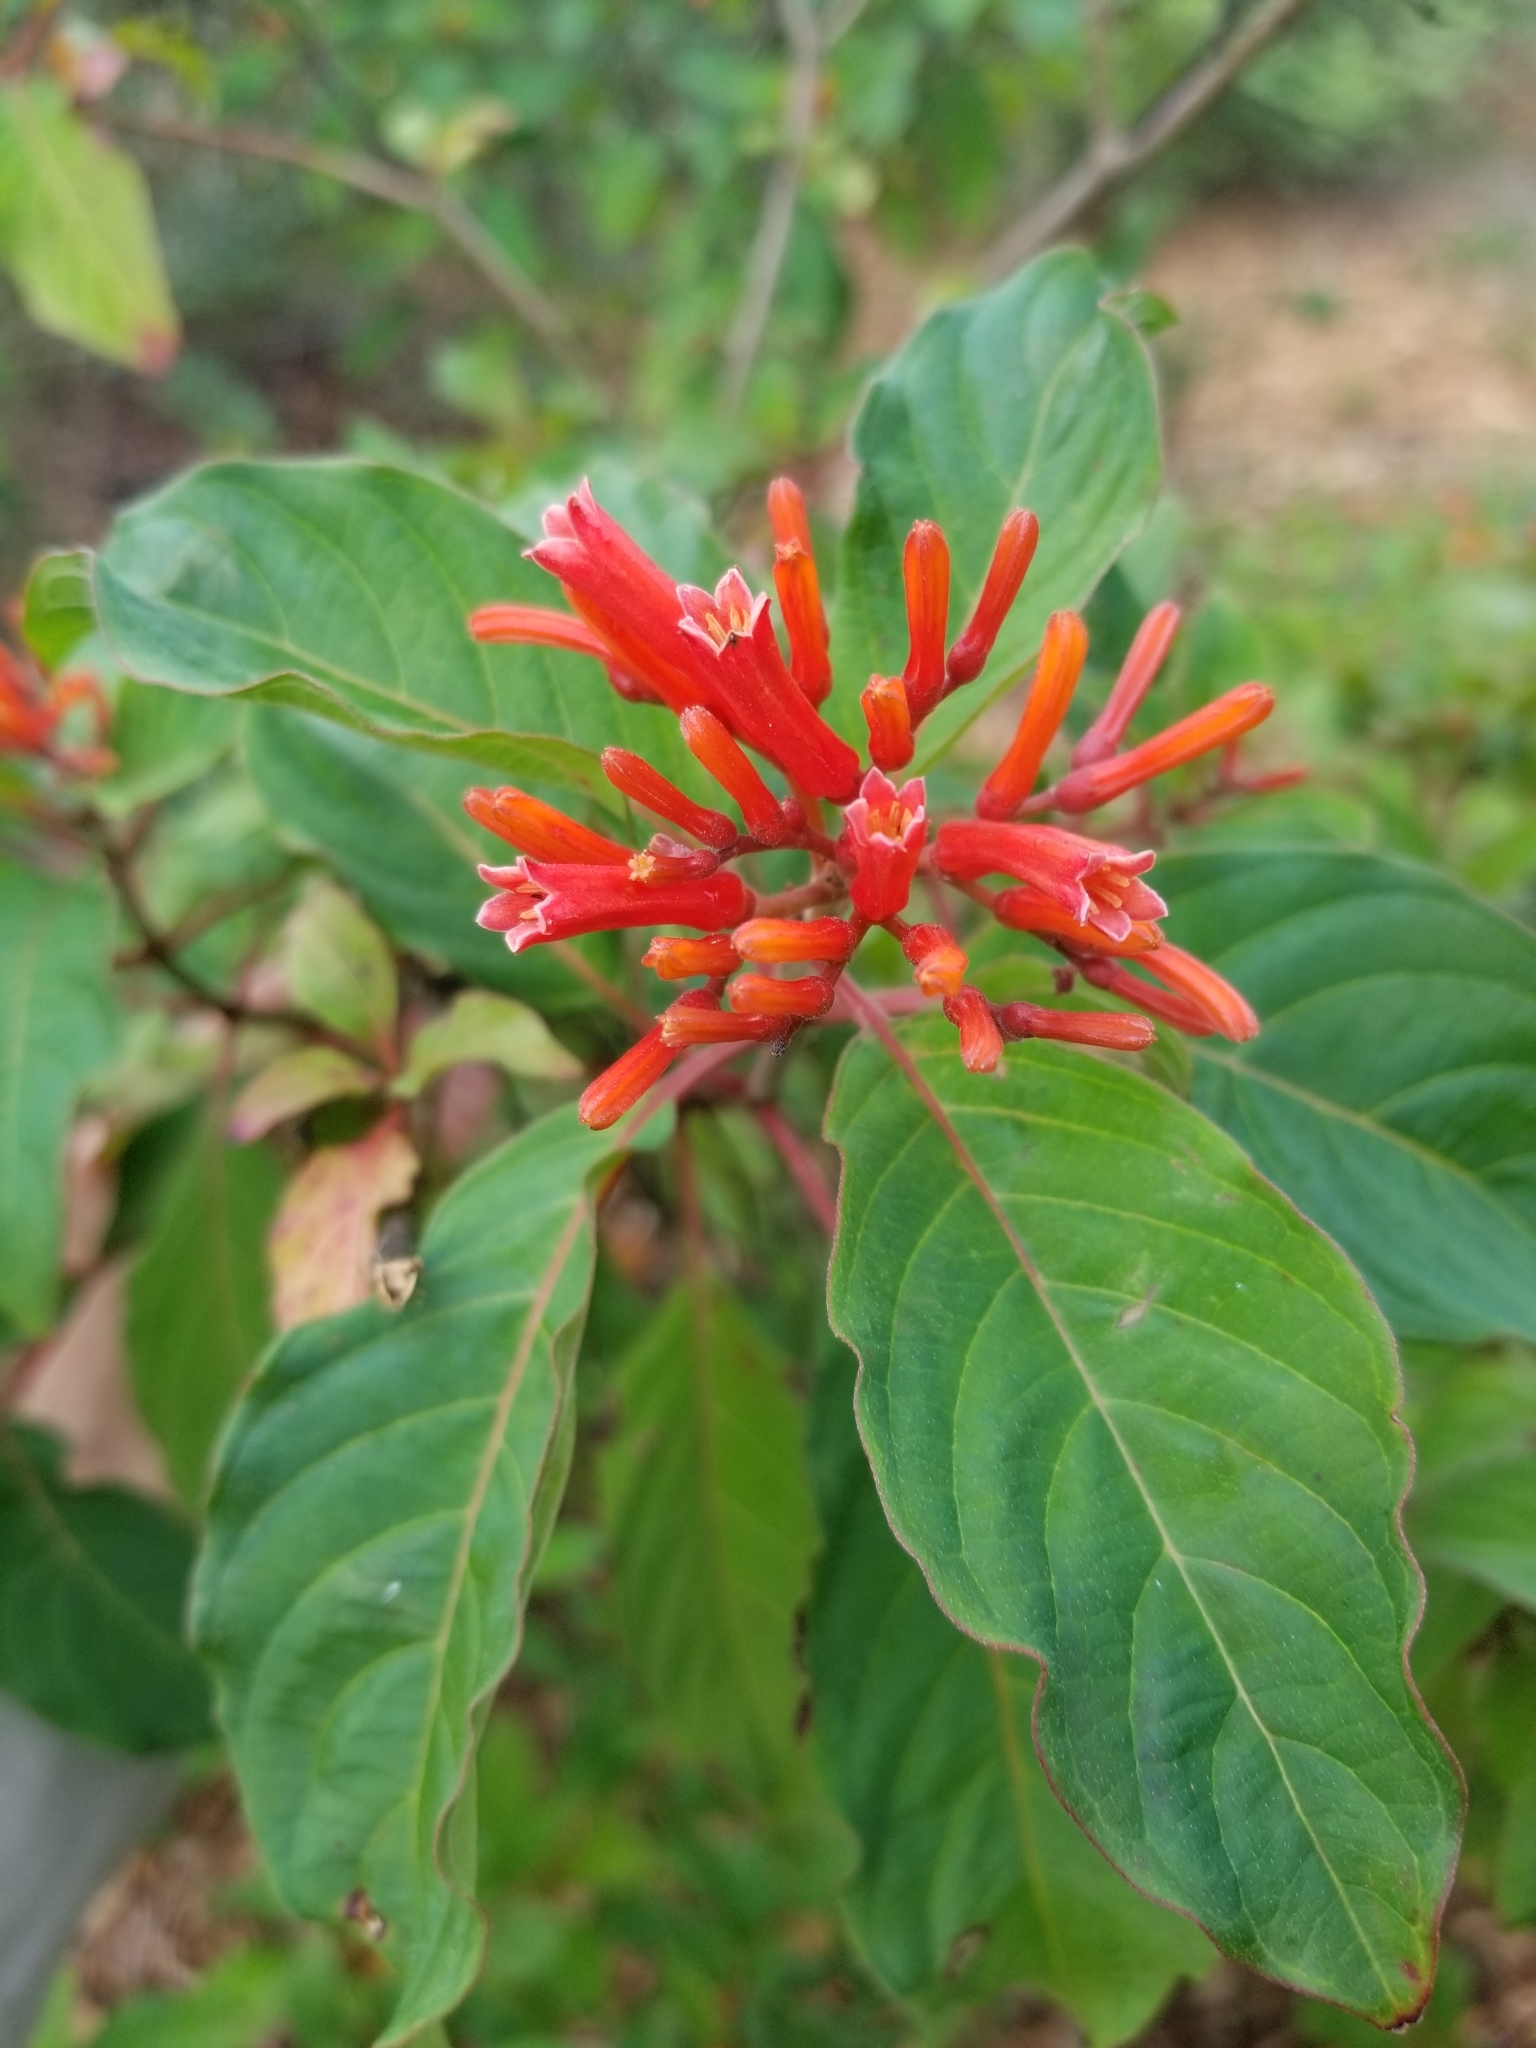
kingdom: Plantae
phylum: Tracheophyta
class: Magnoliopsida
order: Gentianales
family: Rubiaceae
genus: Hamelia
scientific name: Hamelia patens
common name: Redhead
